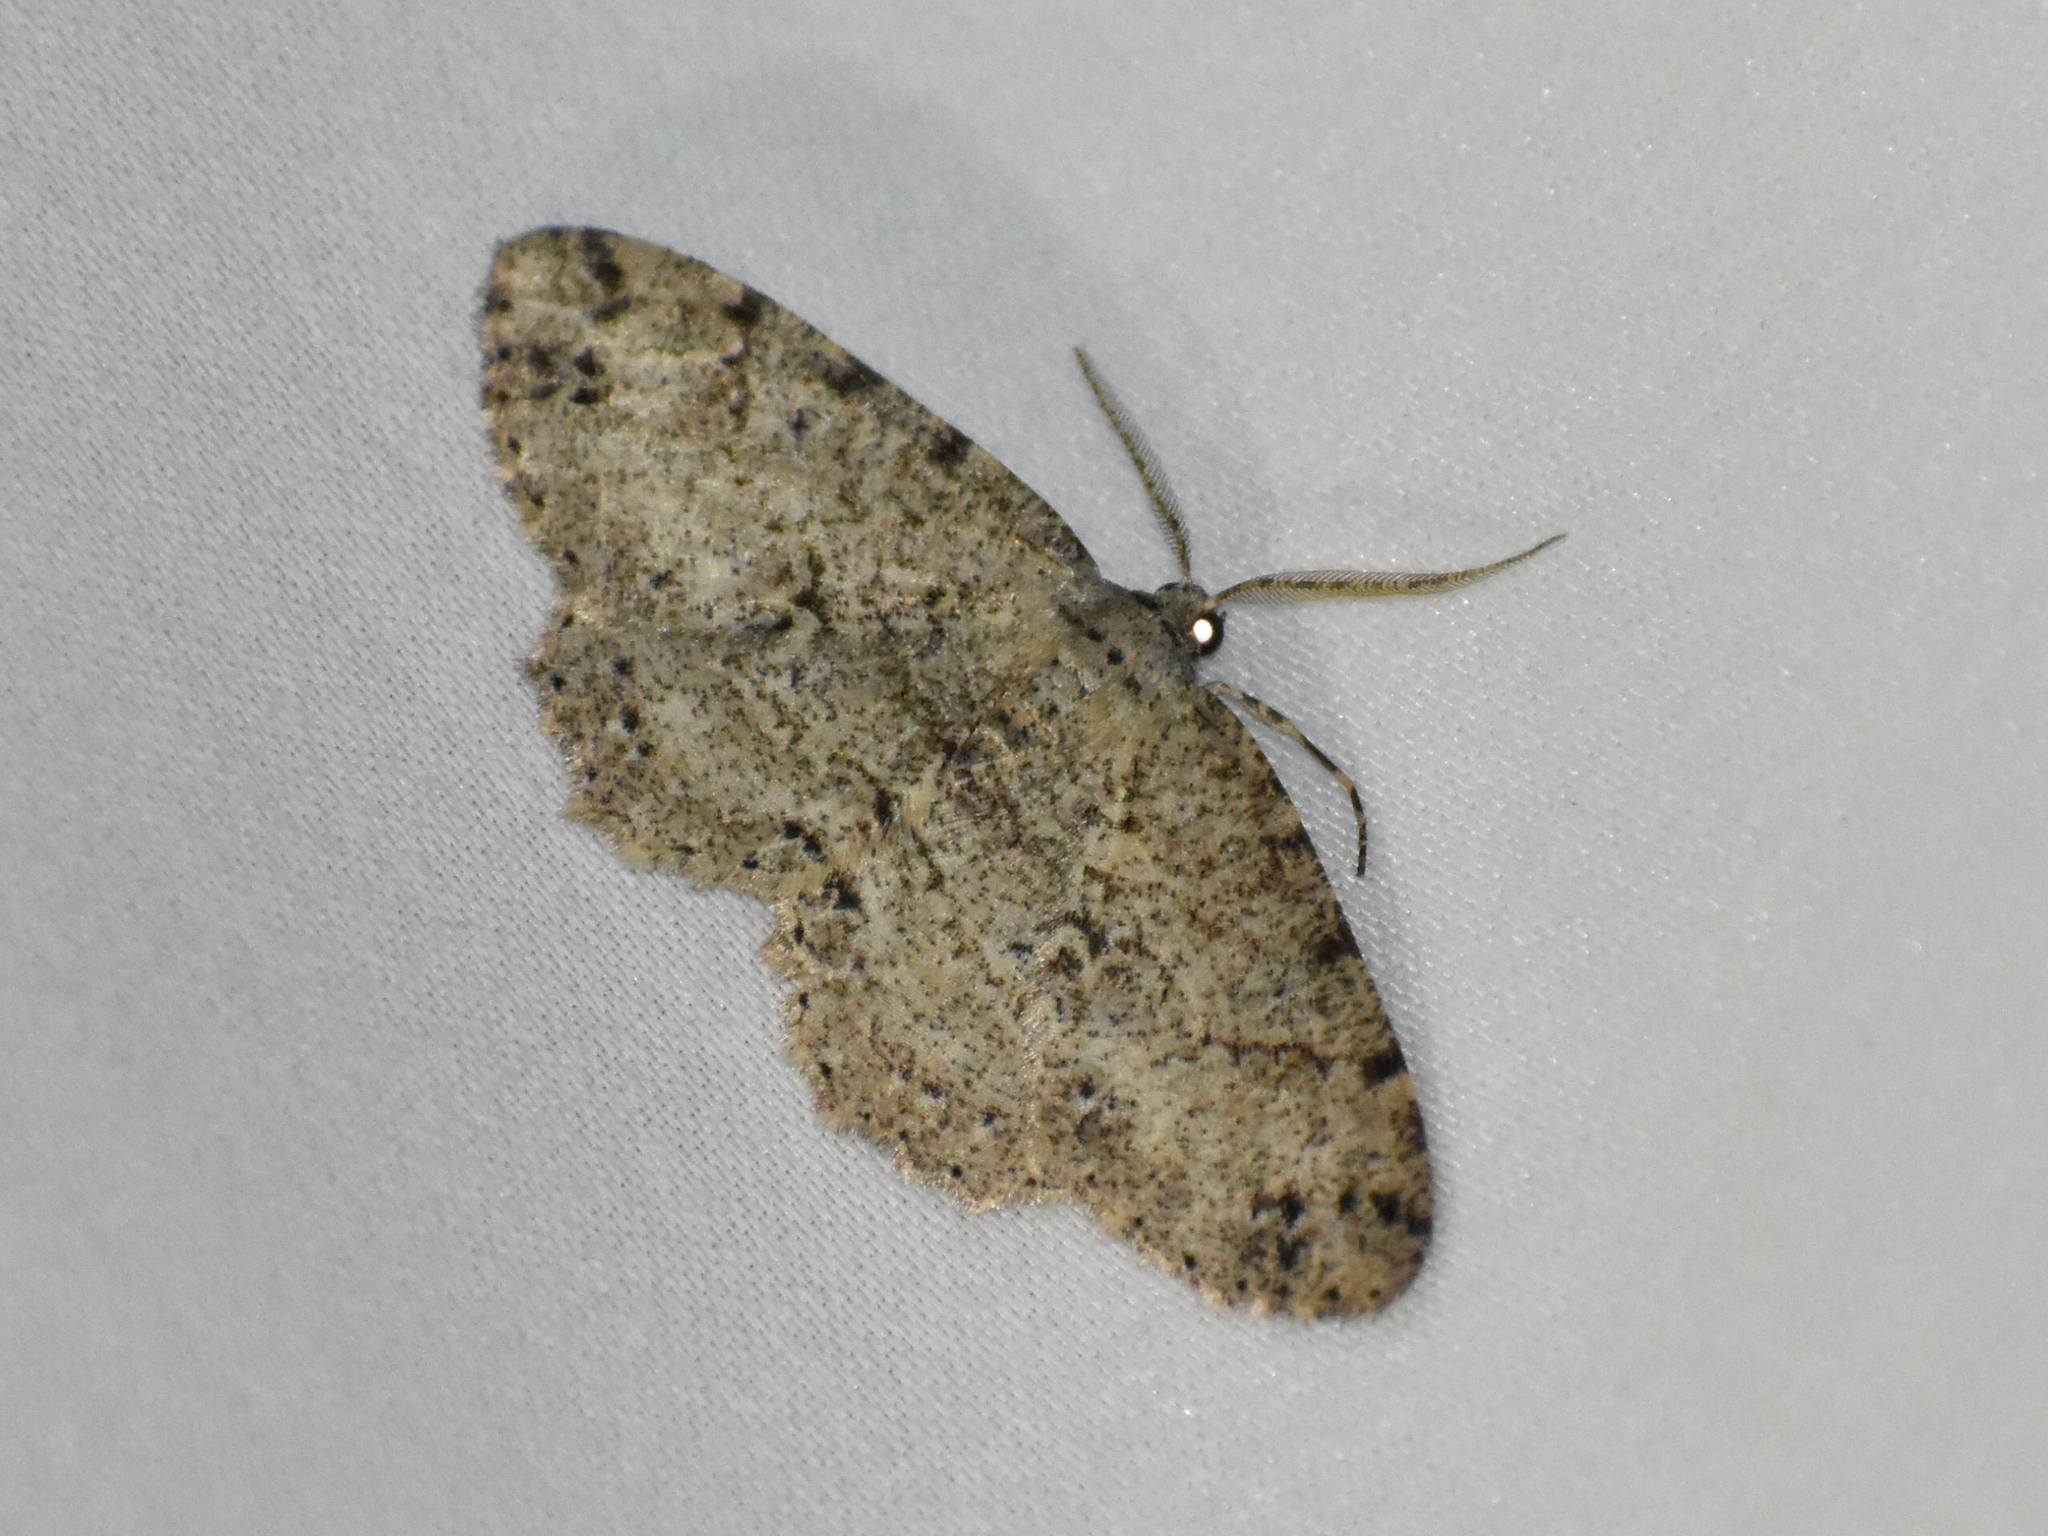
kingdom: Animalia
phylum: Arthropoda
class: Insecta
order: Lepidoptera
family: Geometridae
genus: Melanolophia
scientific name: Melanolophia canadaria
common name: Canadian melanolophia
